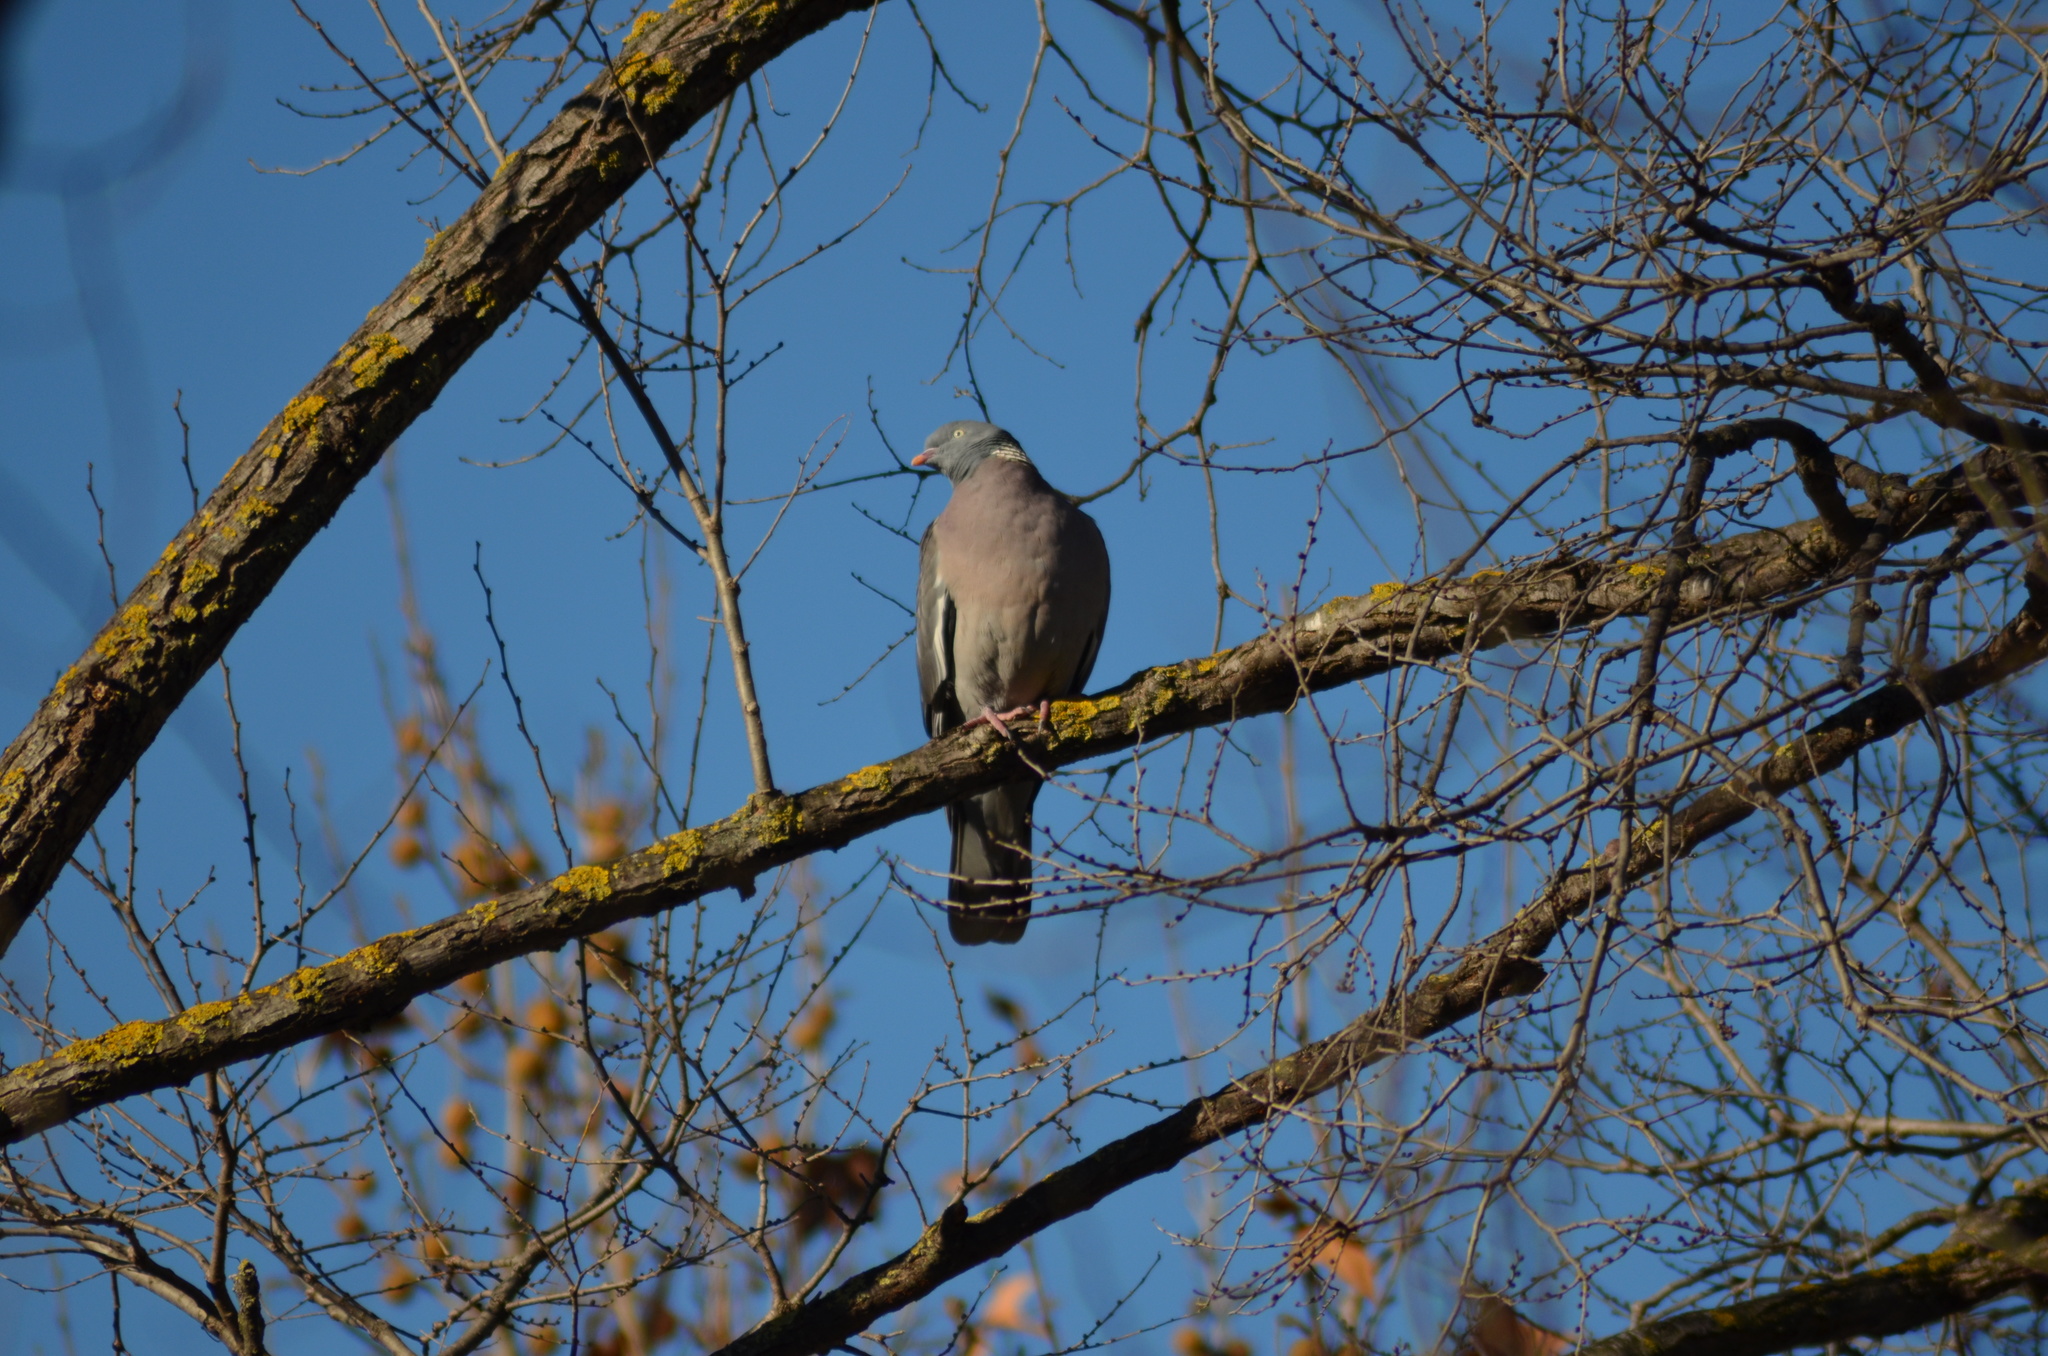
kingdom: Animalia
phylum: Chordata
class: Aves
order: Columbiformes
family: Columbidae
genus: Columba
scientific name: Columba palumbus
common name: Common wood pigeon
